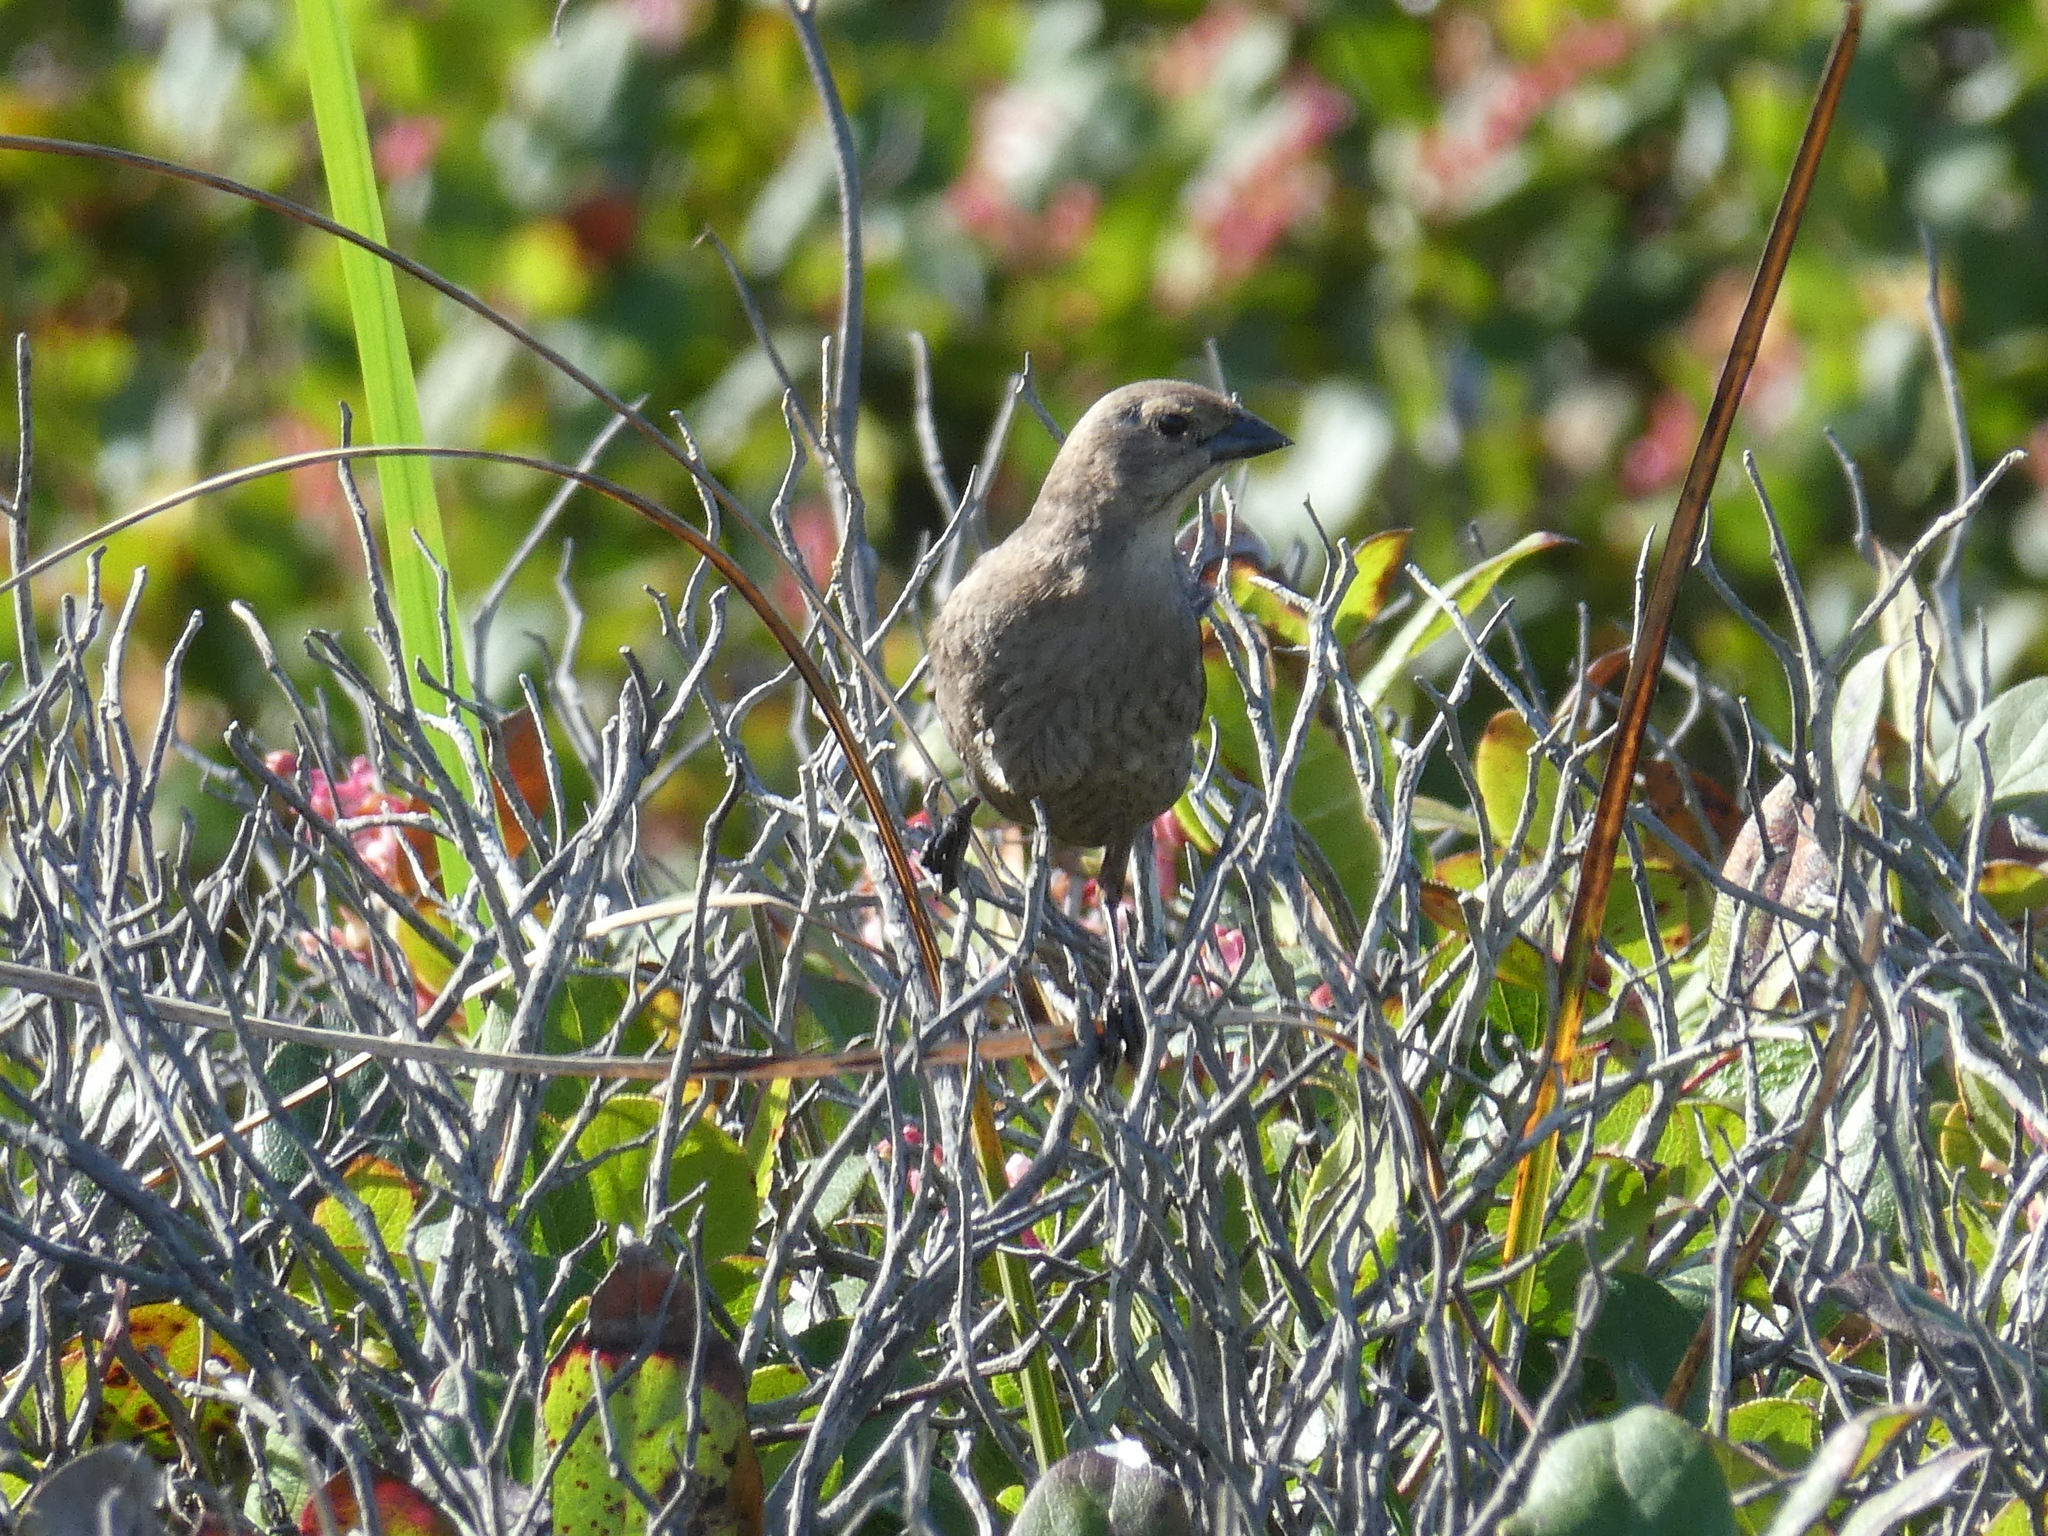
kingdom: Animalia
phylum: Chordata
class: Aves
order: Passeriformes
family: Icteridae
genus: Molothrus
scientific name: Molothrus ater
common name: Brown-headed cowbird
